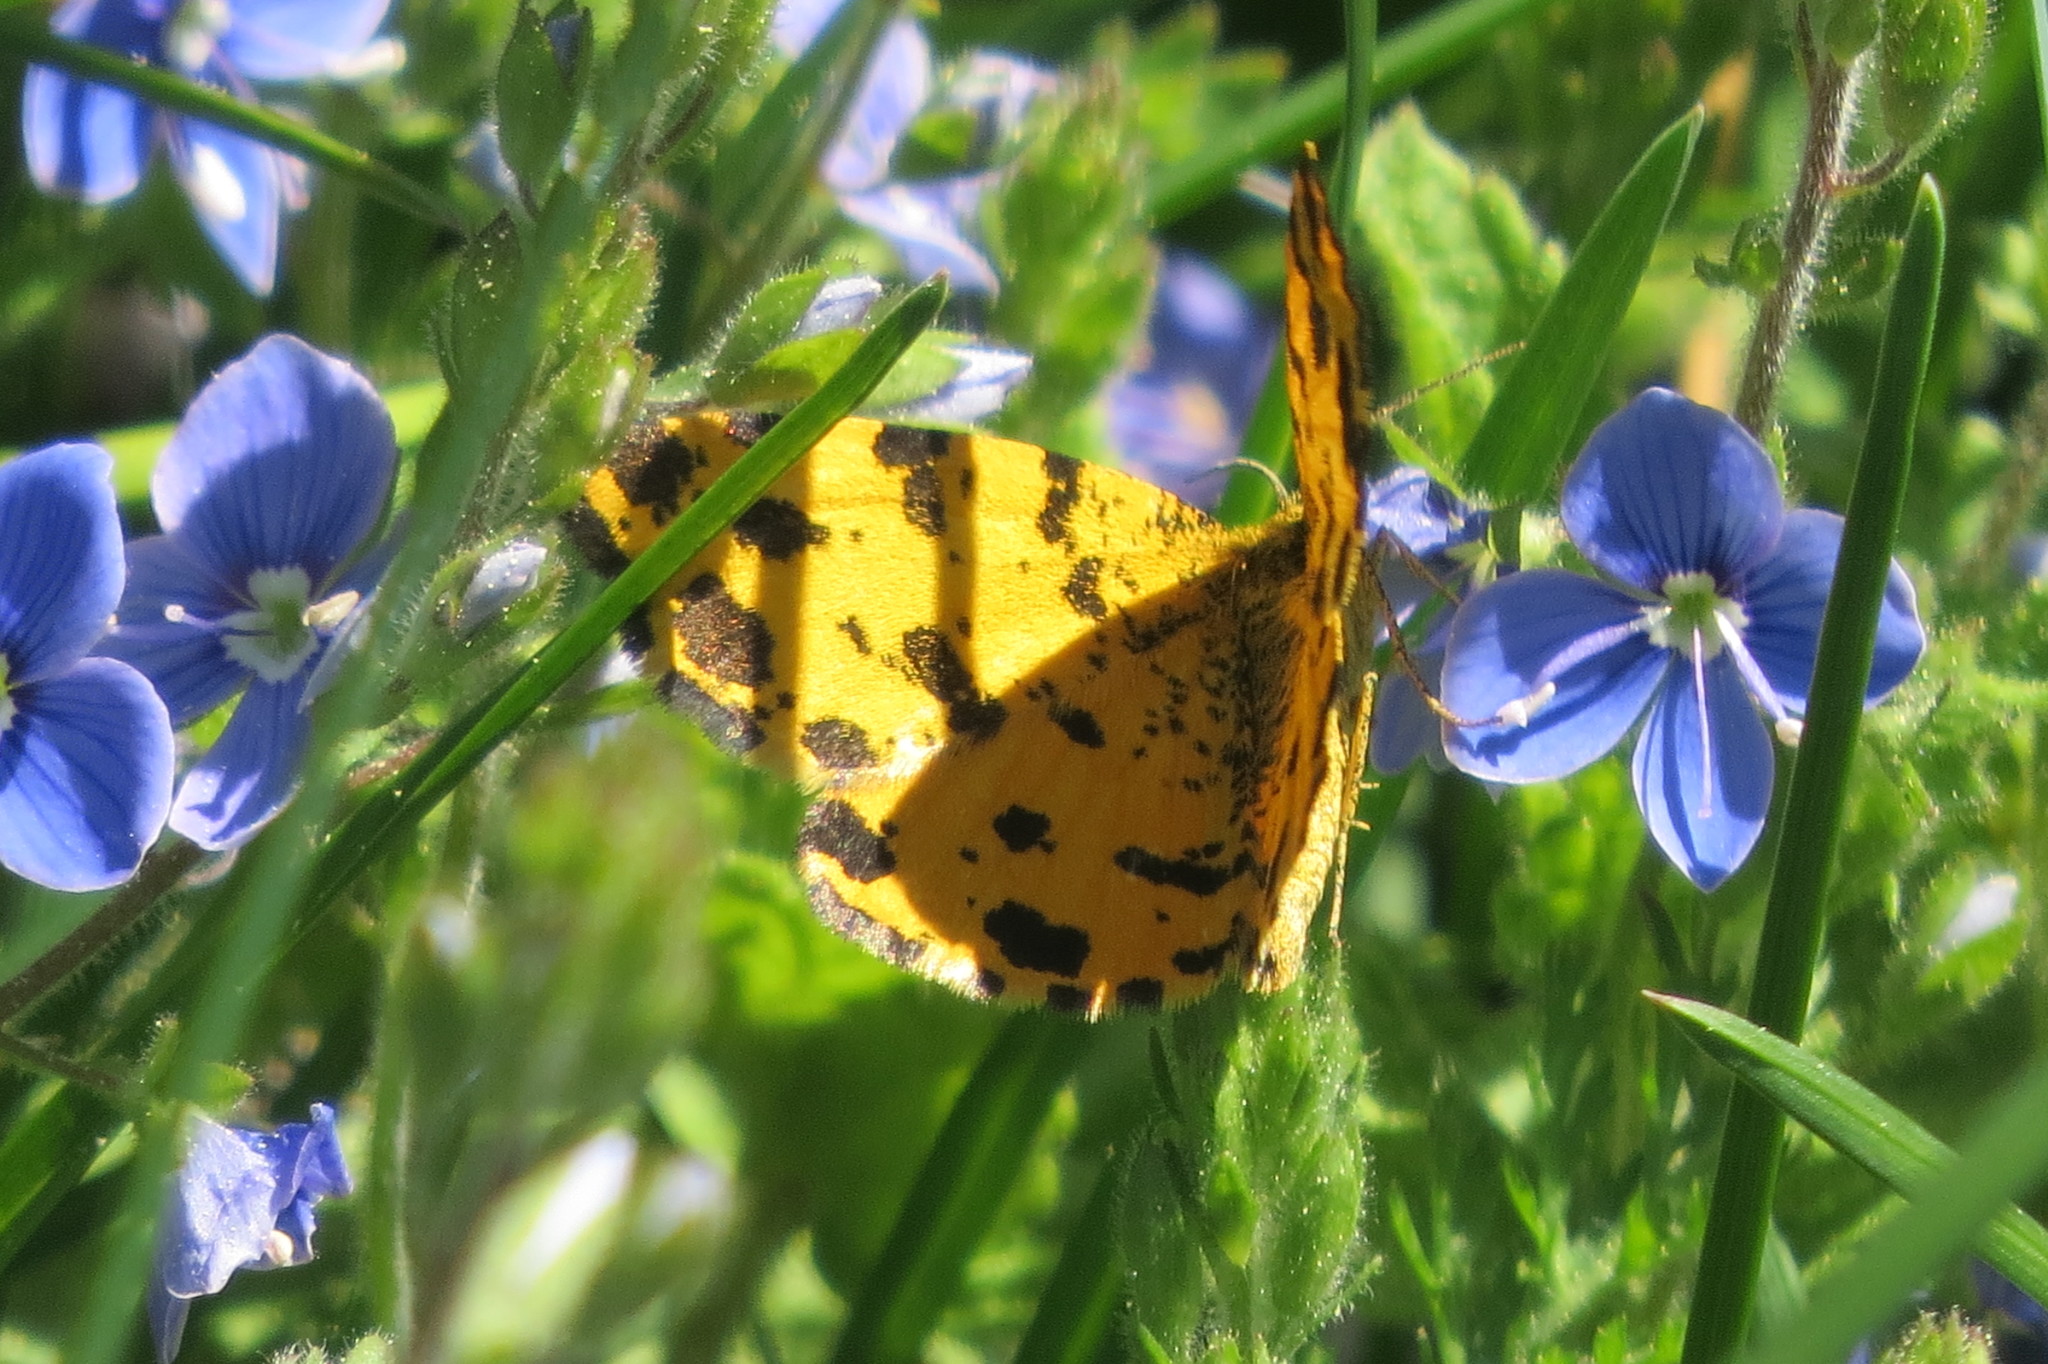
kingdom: Animalia
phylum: Arthropoda
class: Insecta
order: Lepidoptera
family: Geometridae
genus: Pseudopanthera
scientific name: Pseudopanthera macularia
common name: Speckled yellow
